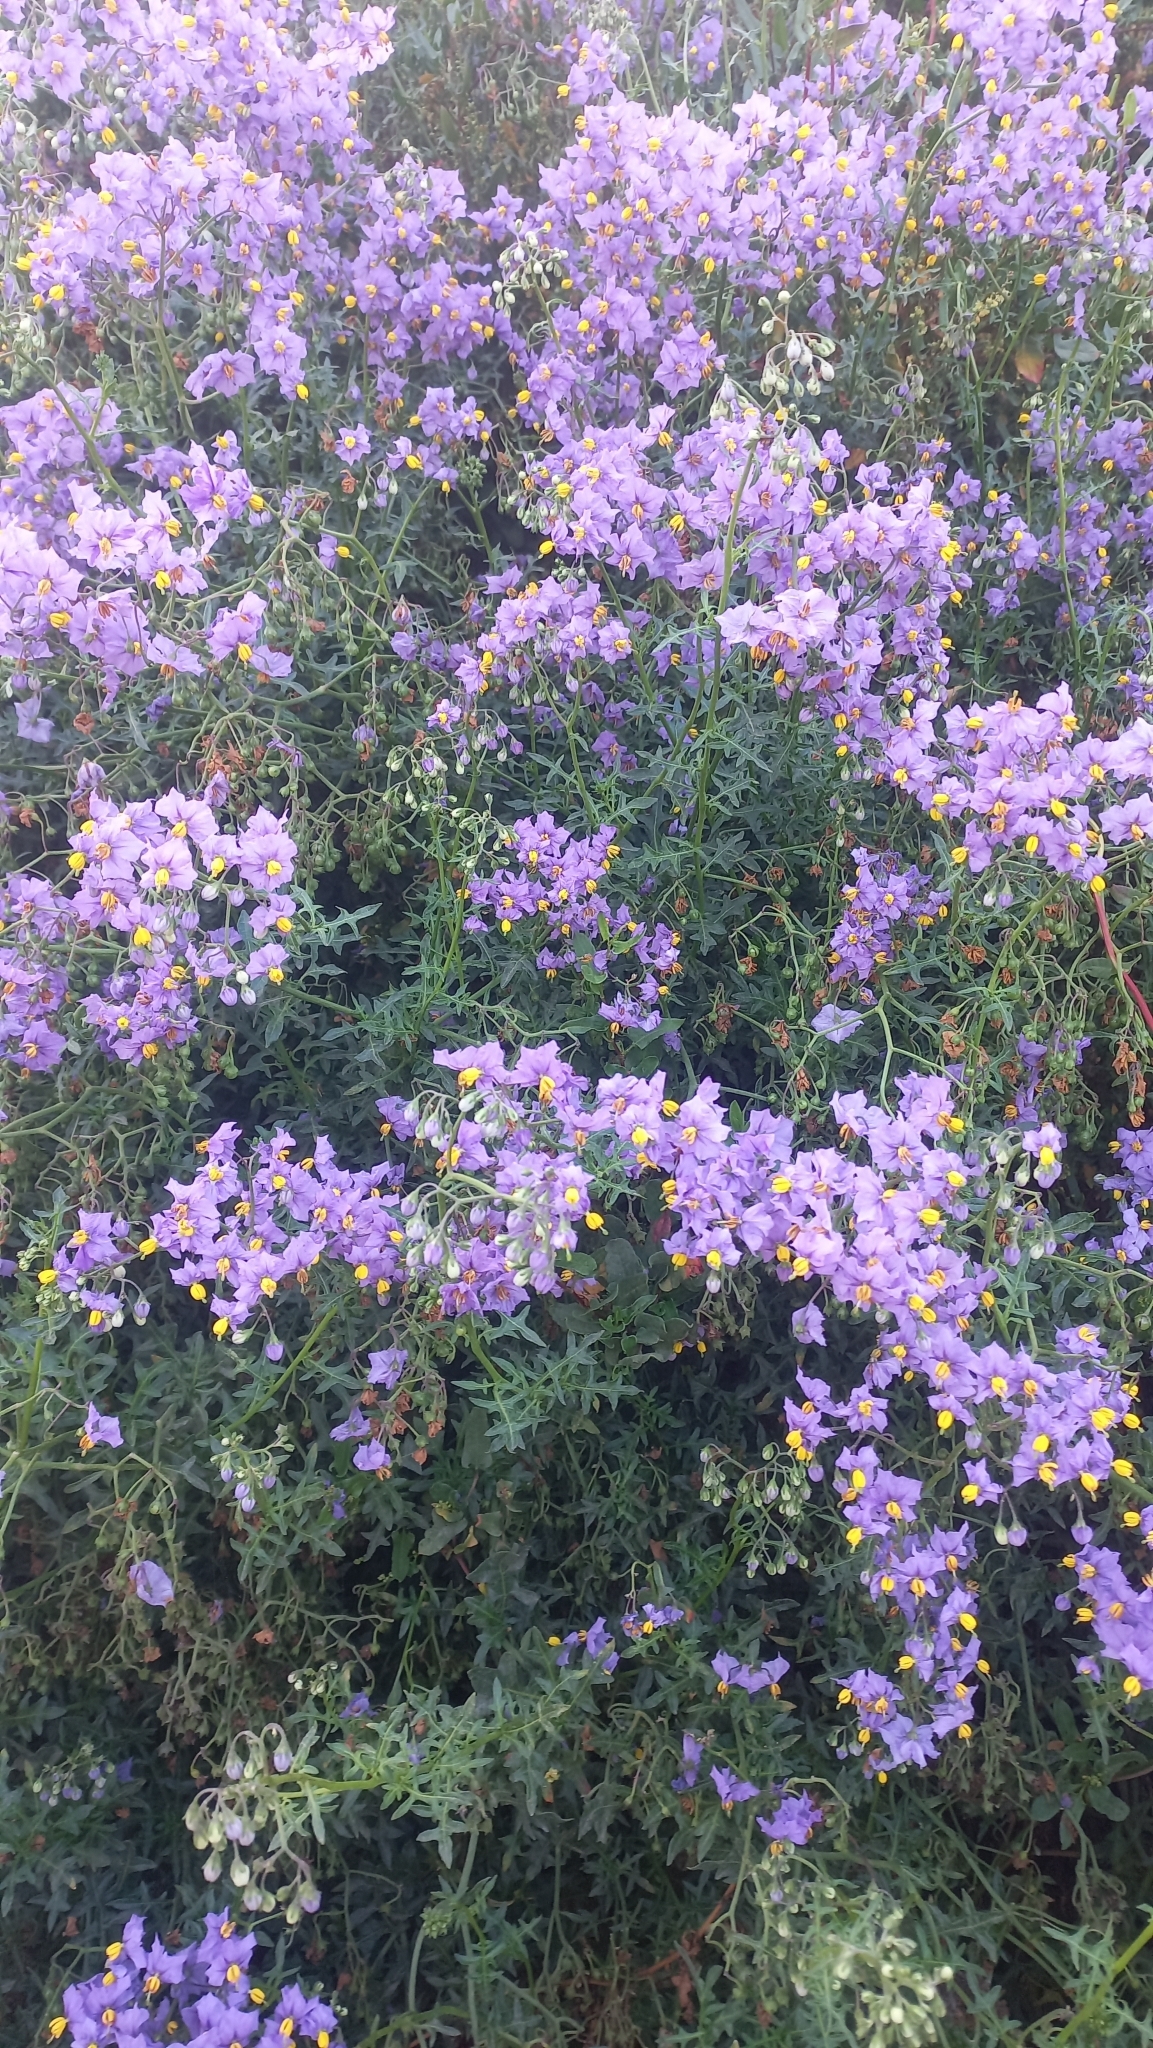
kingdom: Plantae
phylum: Tracheophyta
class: Magnoliopsida
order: Solanales
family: Solanaceae
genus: Solanum
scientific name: Solanum pinnatum
